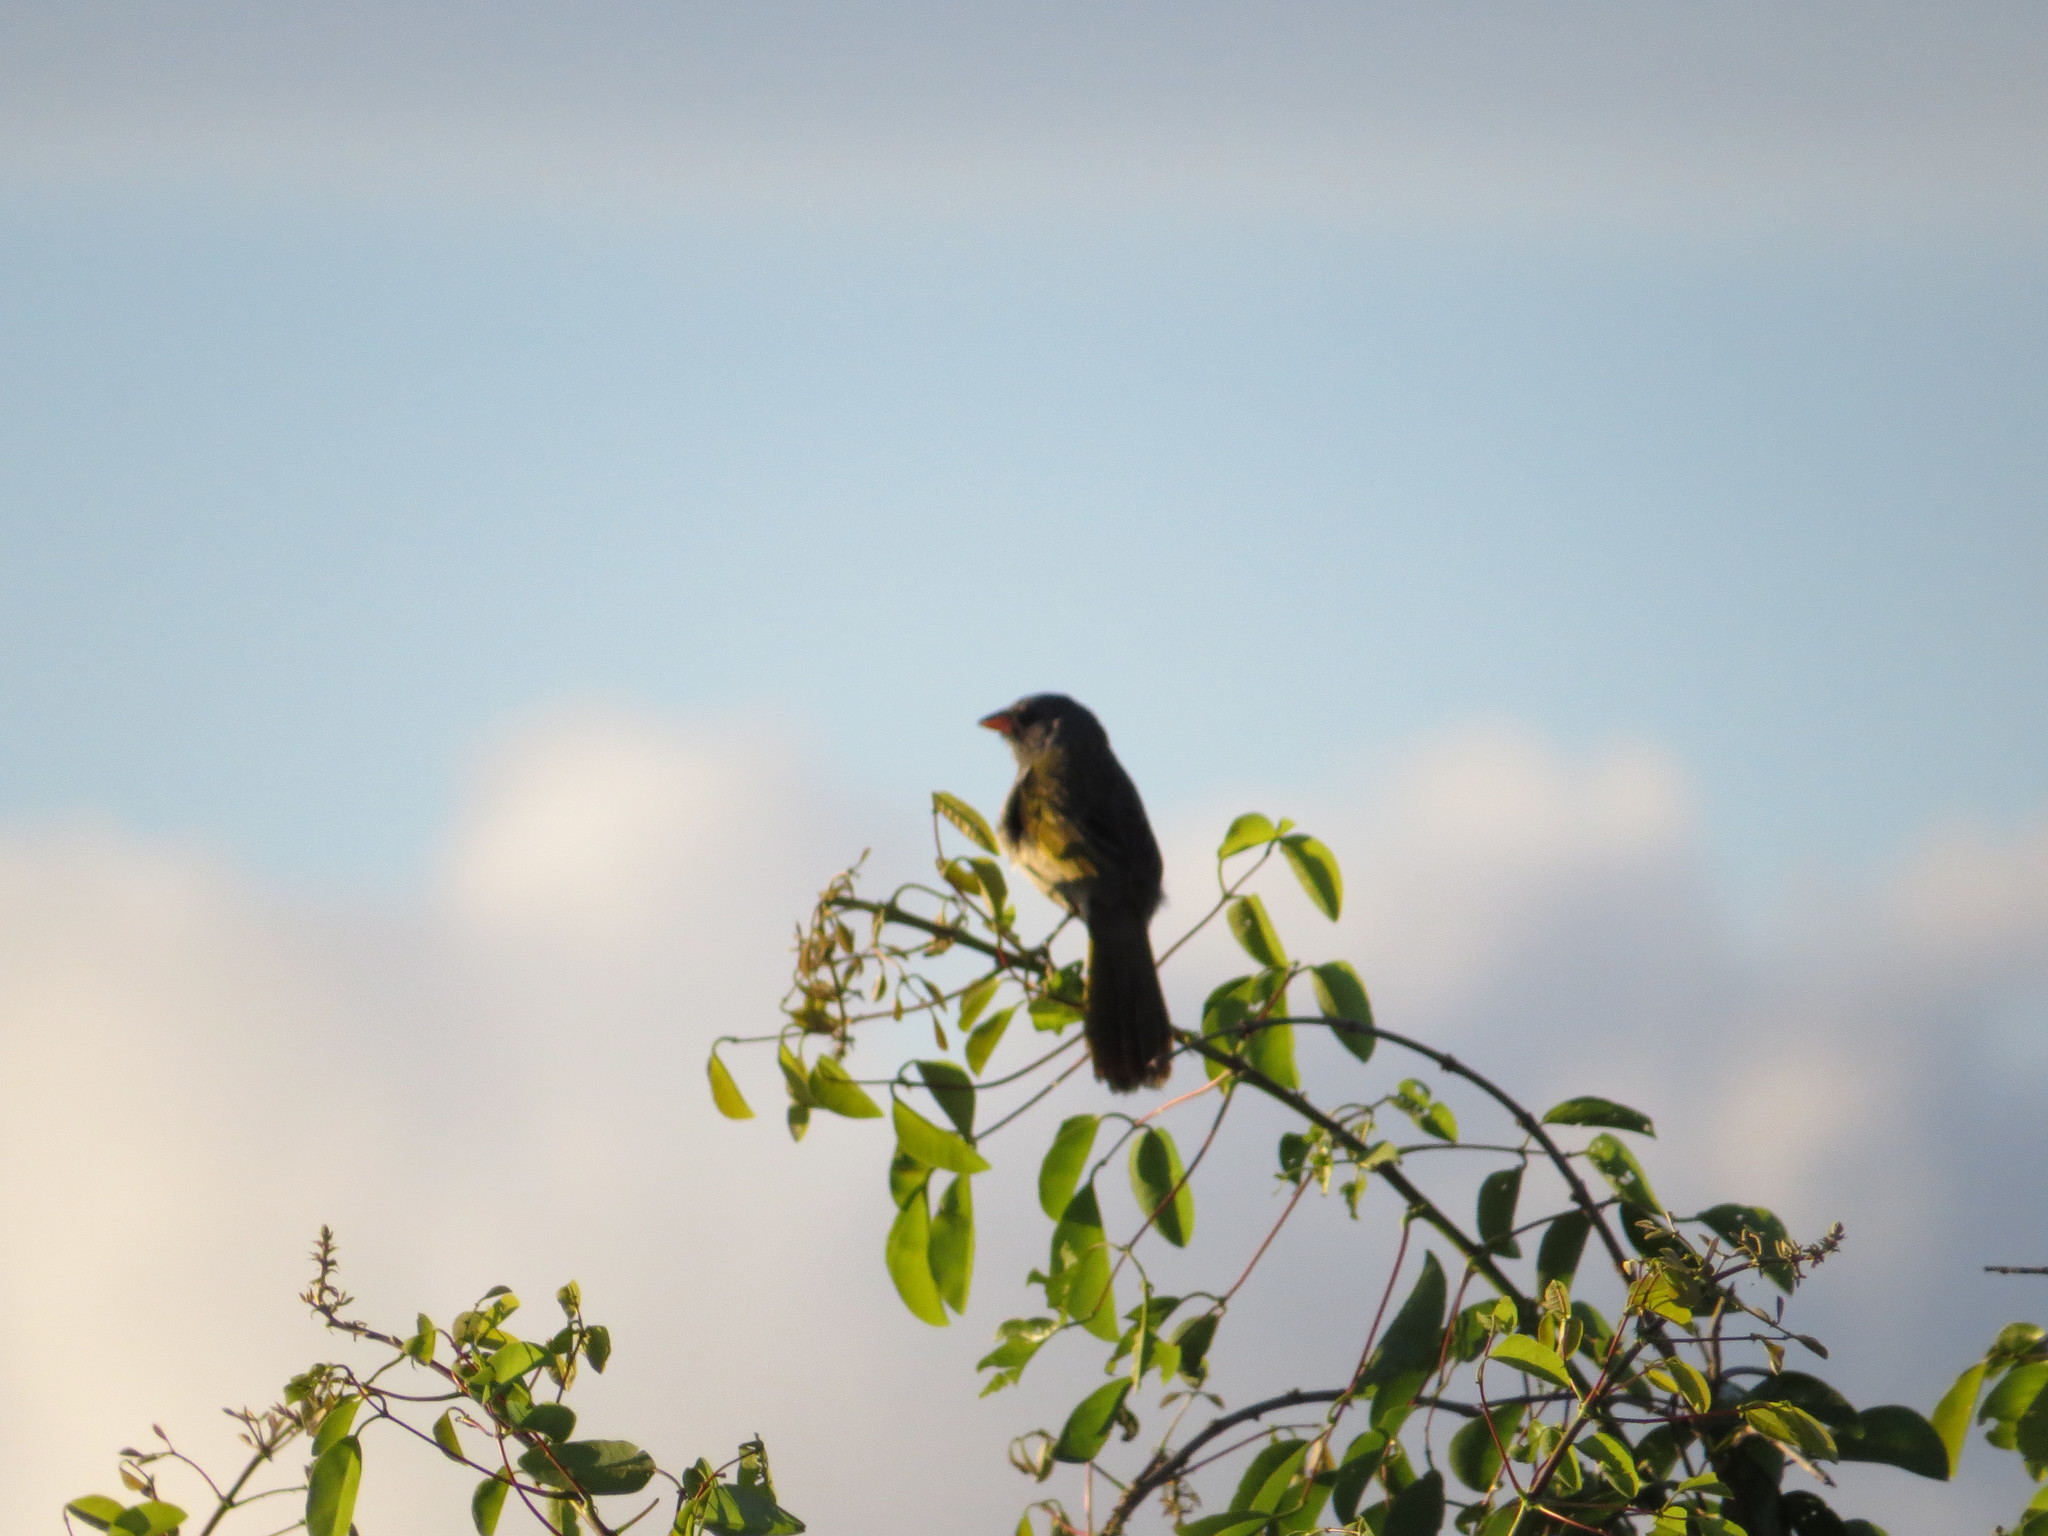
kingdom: Animalia
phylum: Chordata
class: Aves
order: Passeriformes
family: Thraupidae
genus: Embernagra
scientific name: Embernagra platensis
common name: Pampa finch
